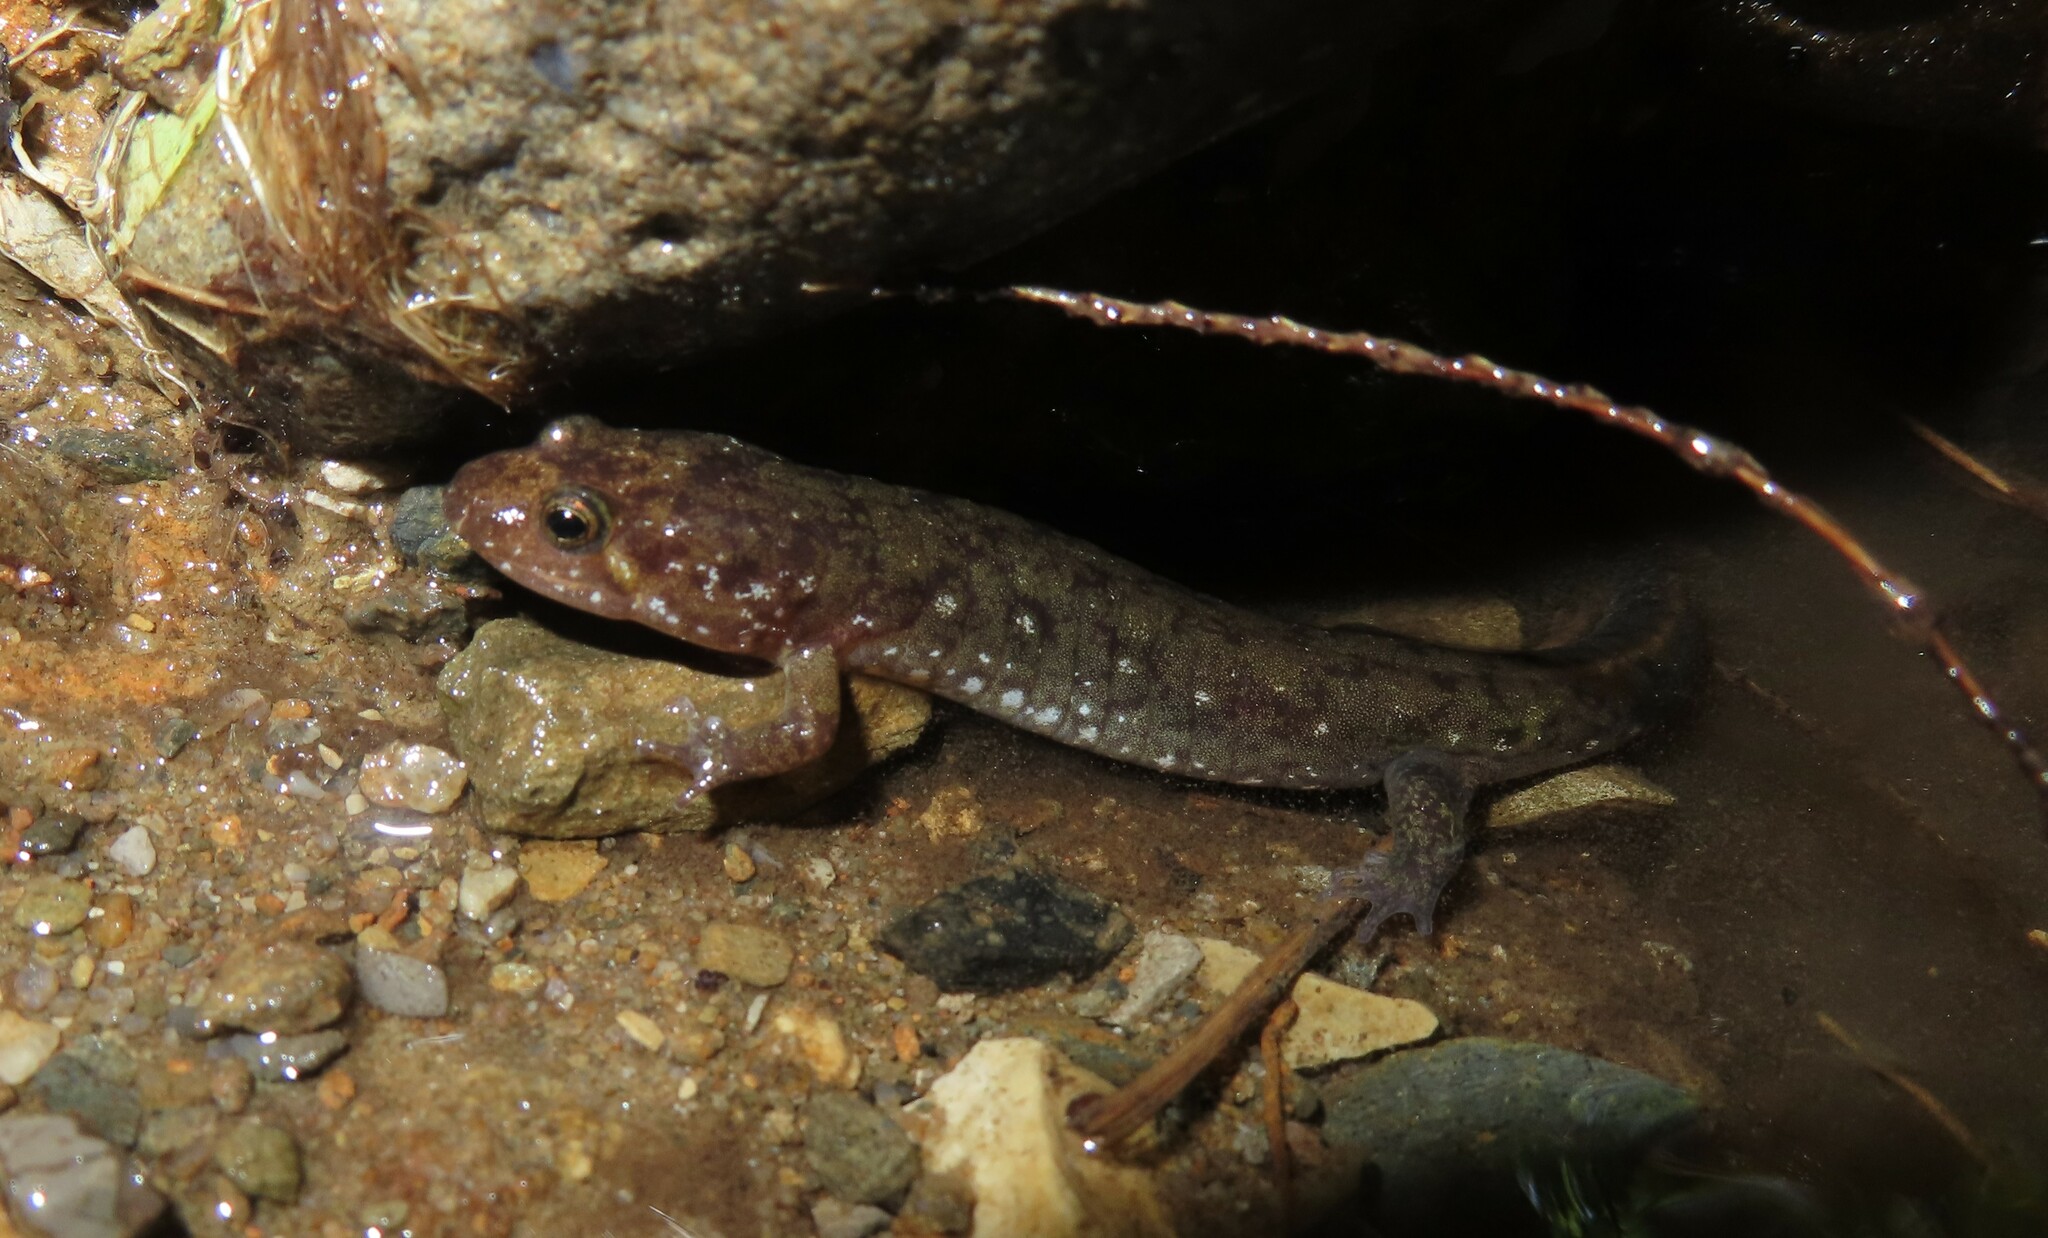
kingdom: Animalia
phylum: Chordata
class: Amphibia
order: Caudata
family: Plethodontidae
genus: Desmognathus
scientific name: Desmognathus monticola
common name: Seal salamander
